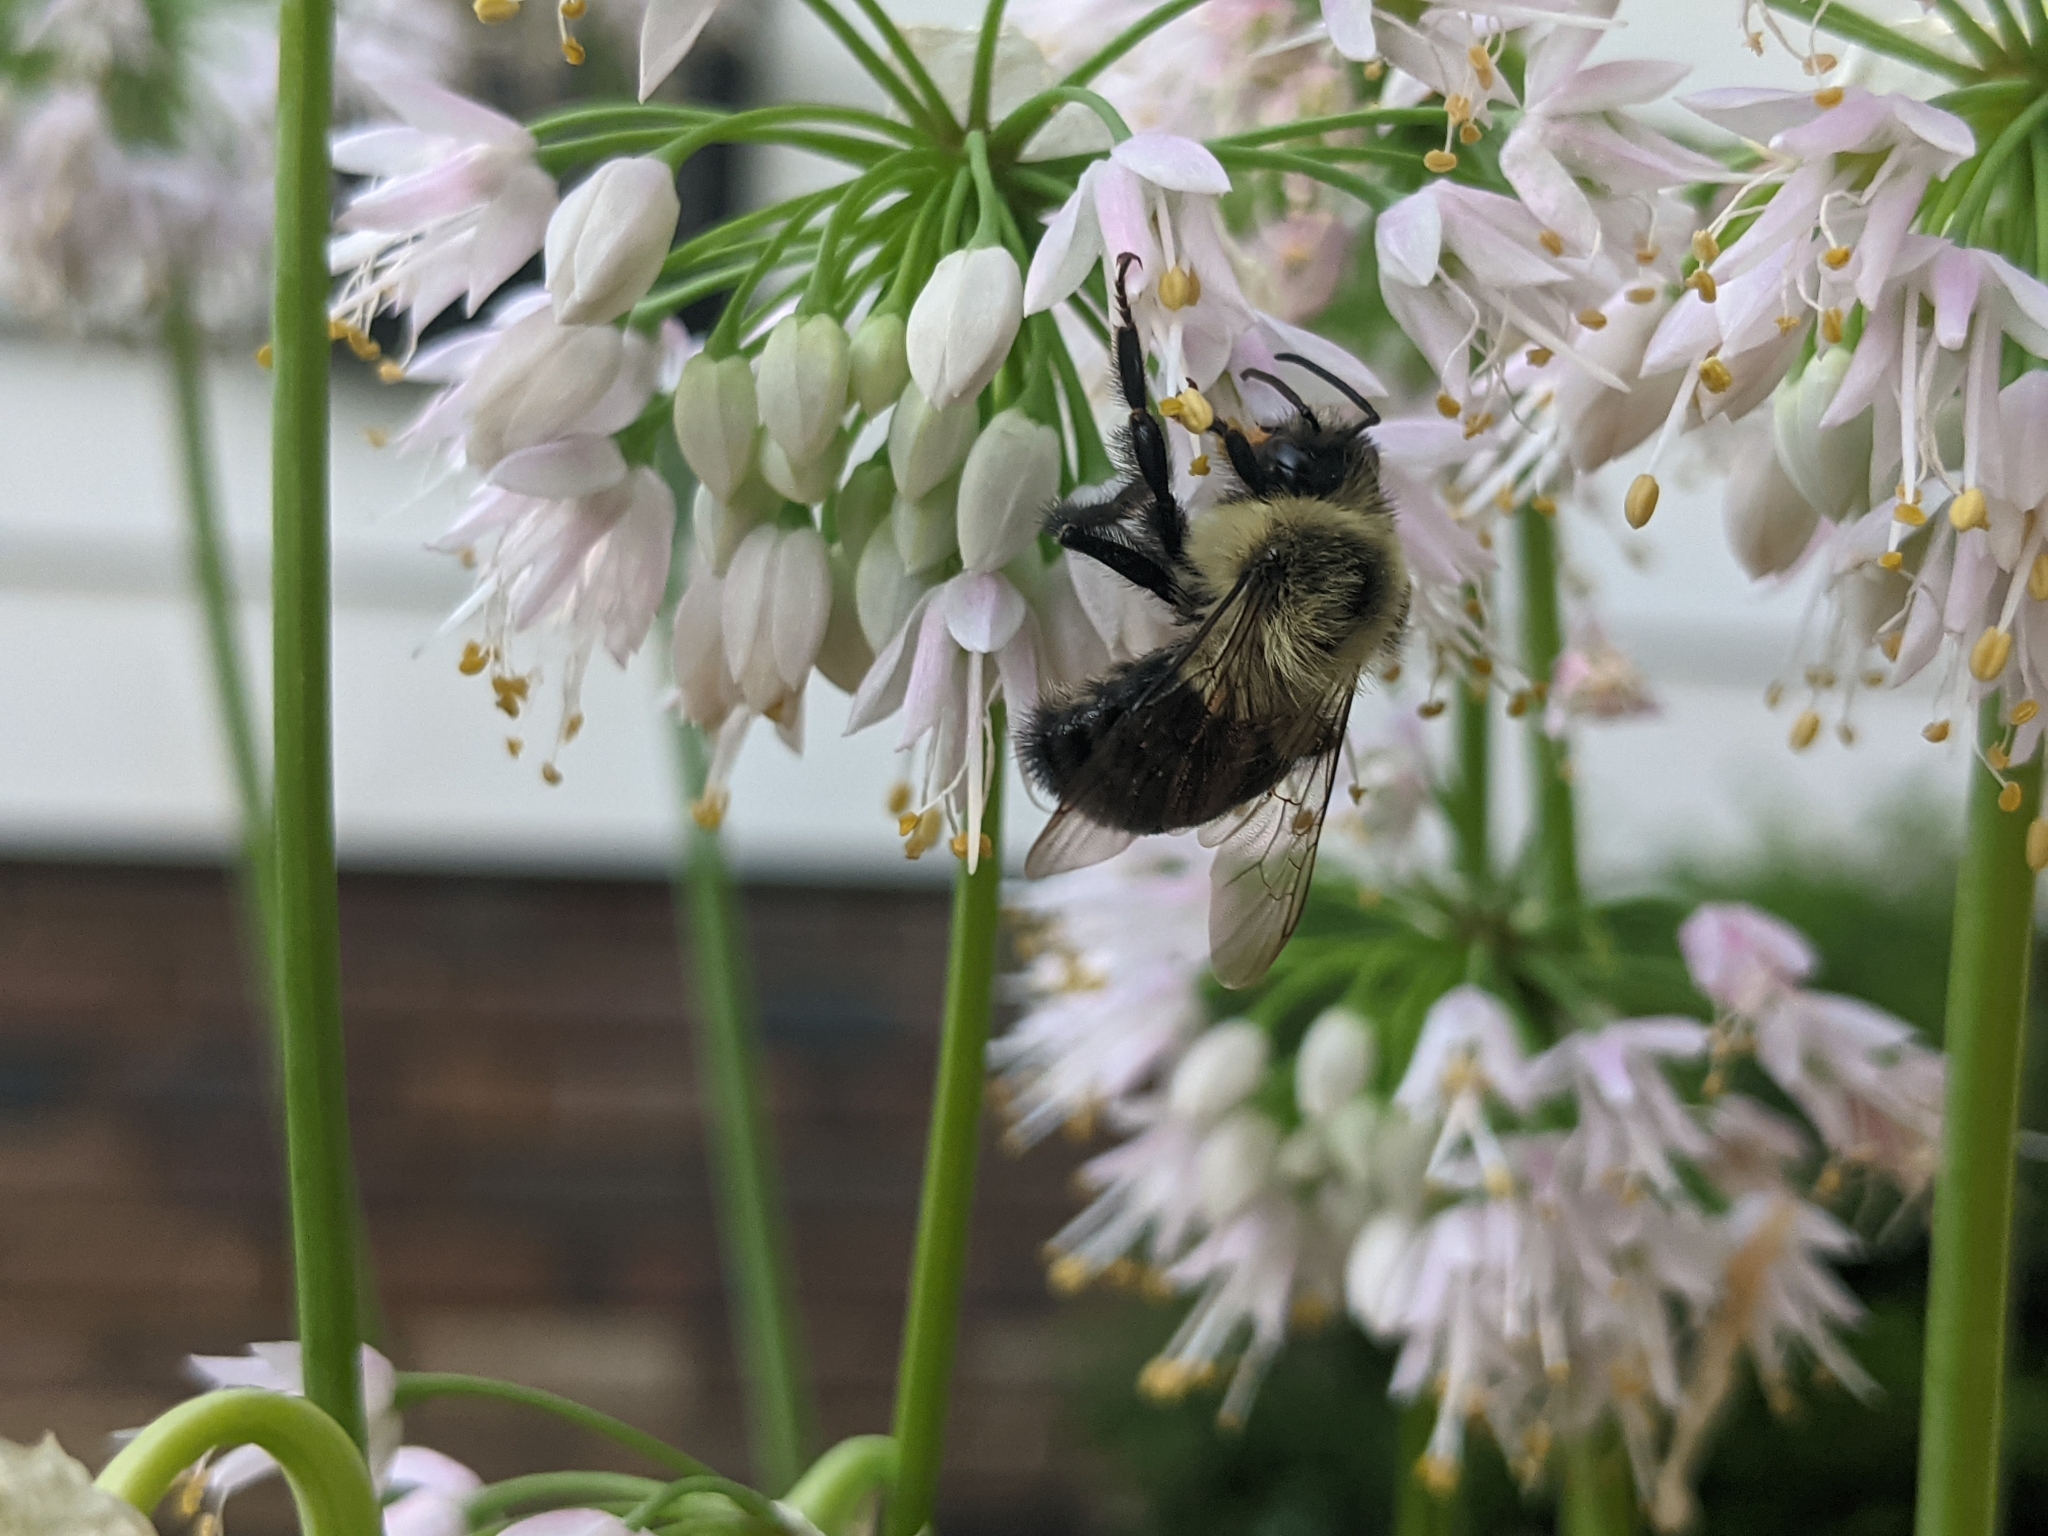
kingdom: Animalia
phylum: Arthropoda
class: Insecta
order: Hymenoptera
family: Apidae
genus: Bombus
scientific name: Bombus impatiens
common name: Common eastern bumble bee
